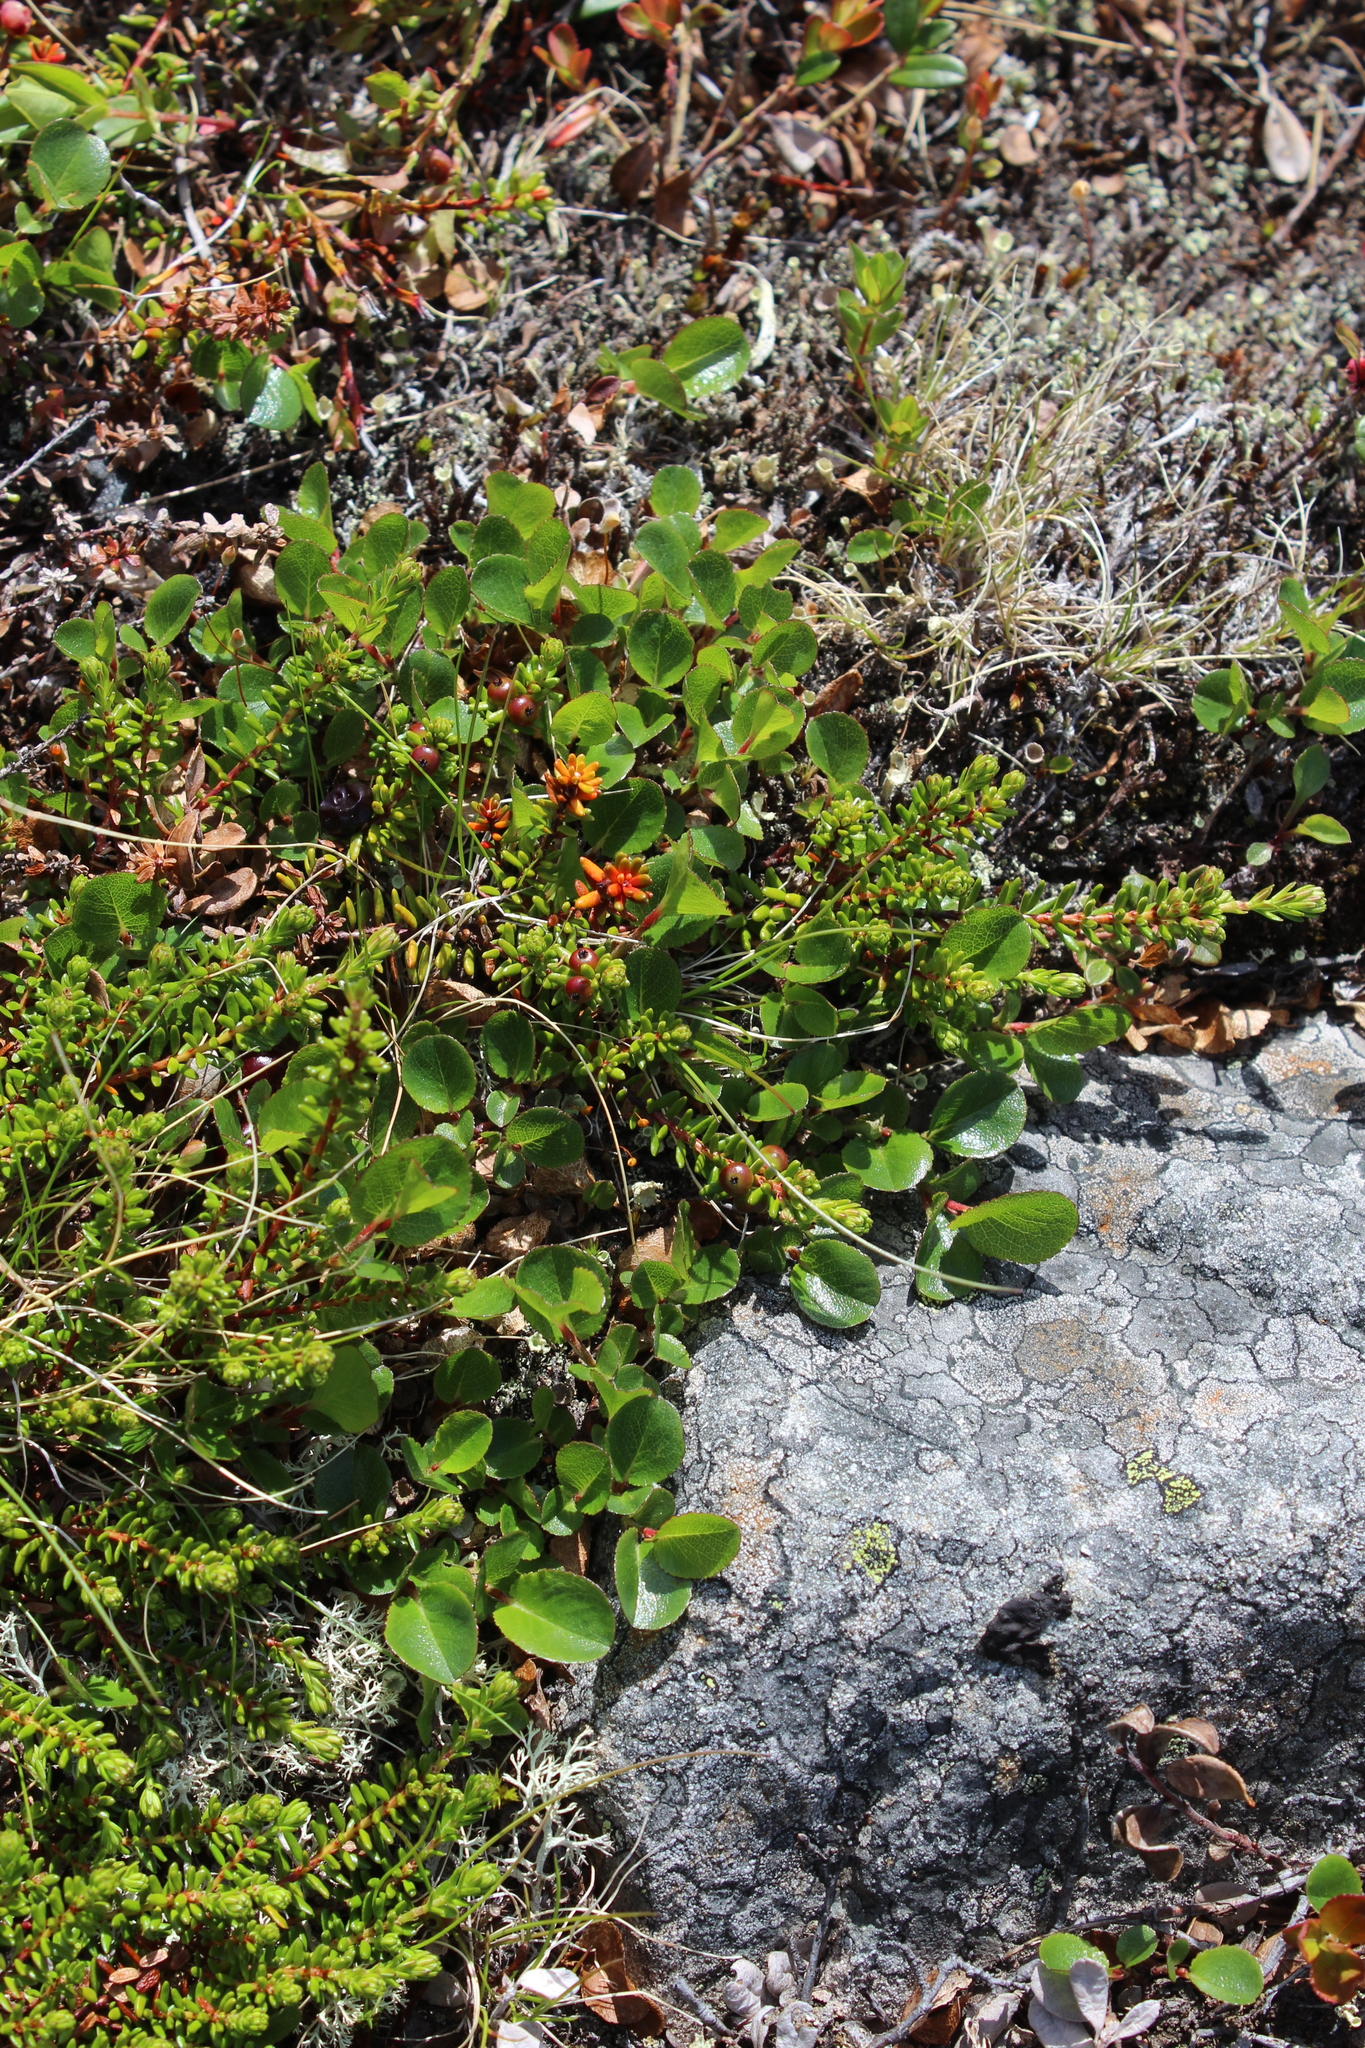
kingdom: Plantae
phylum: Tracheophyta
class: Magnoliopsida
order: Malpighiales
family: Salicaceae
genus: Salix
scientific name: Salix herbacea
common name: Dwarf willow
